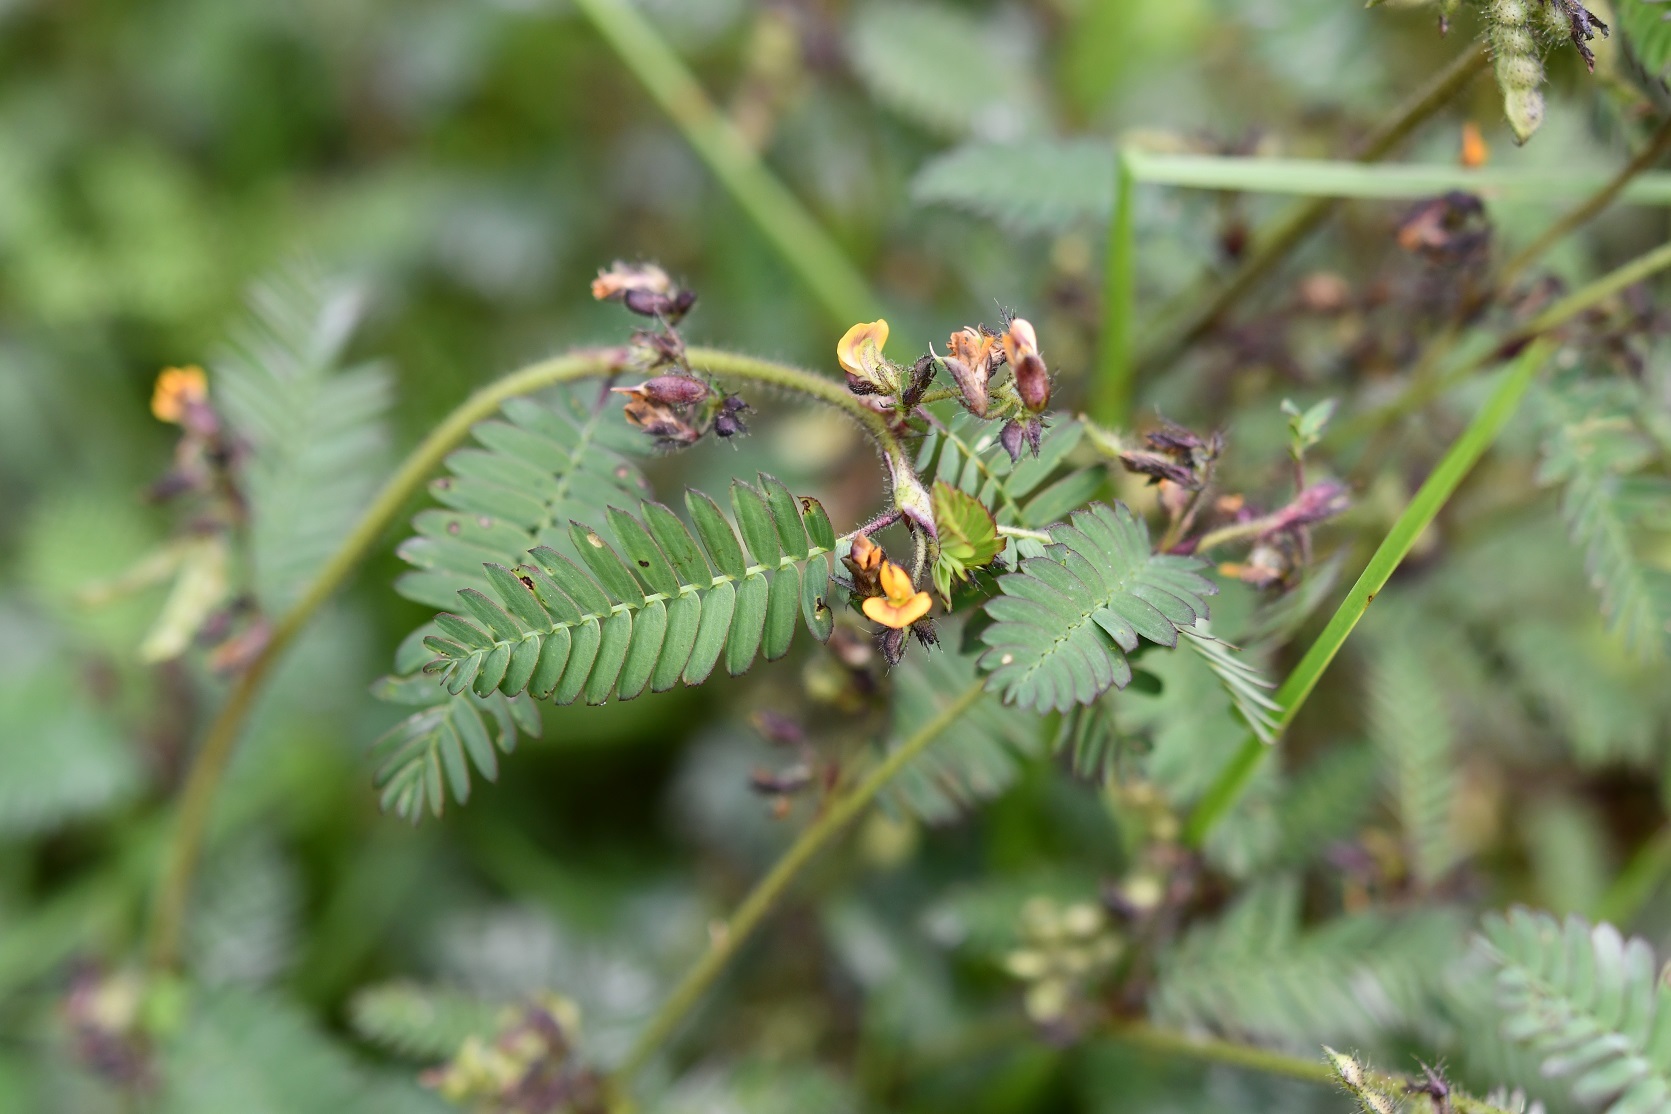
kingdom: Plantae
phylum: Tracheophyta
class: Magnoliopsida
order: Fabales
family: Fabaceae
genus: Aeschynomene
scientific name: Aeschynomene villosa
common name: Hairy-jointvetch
